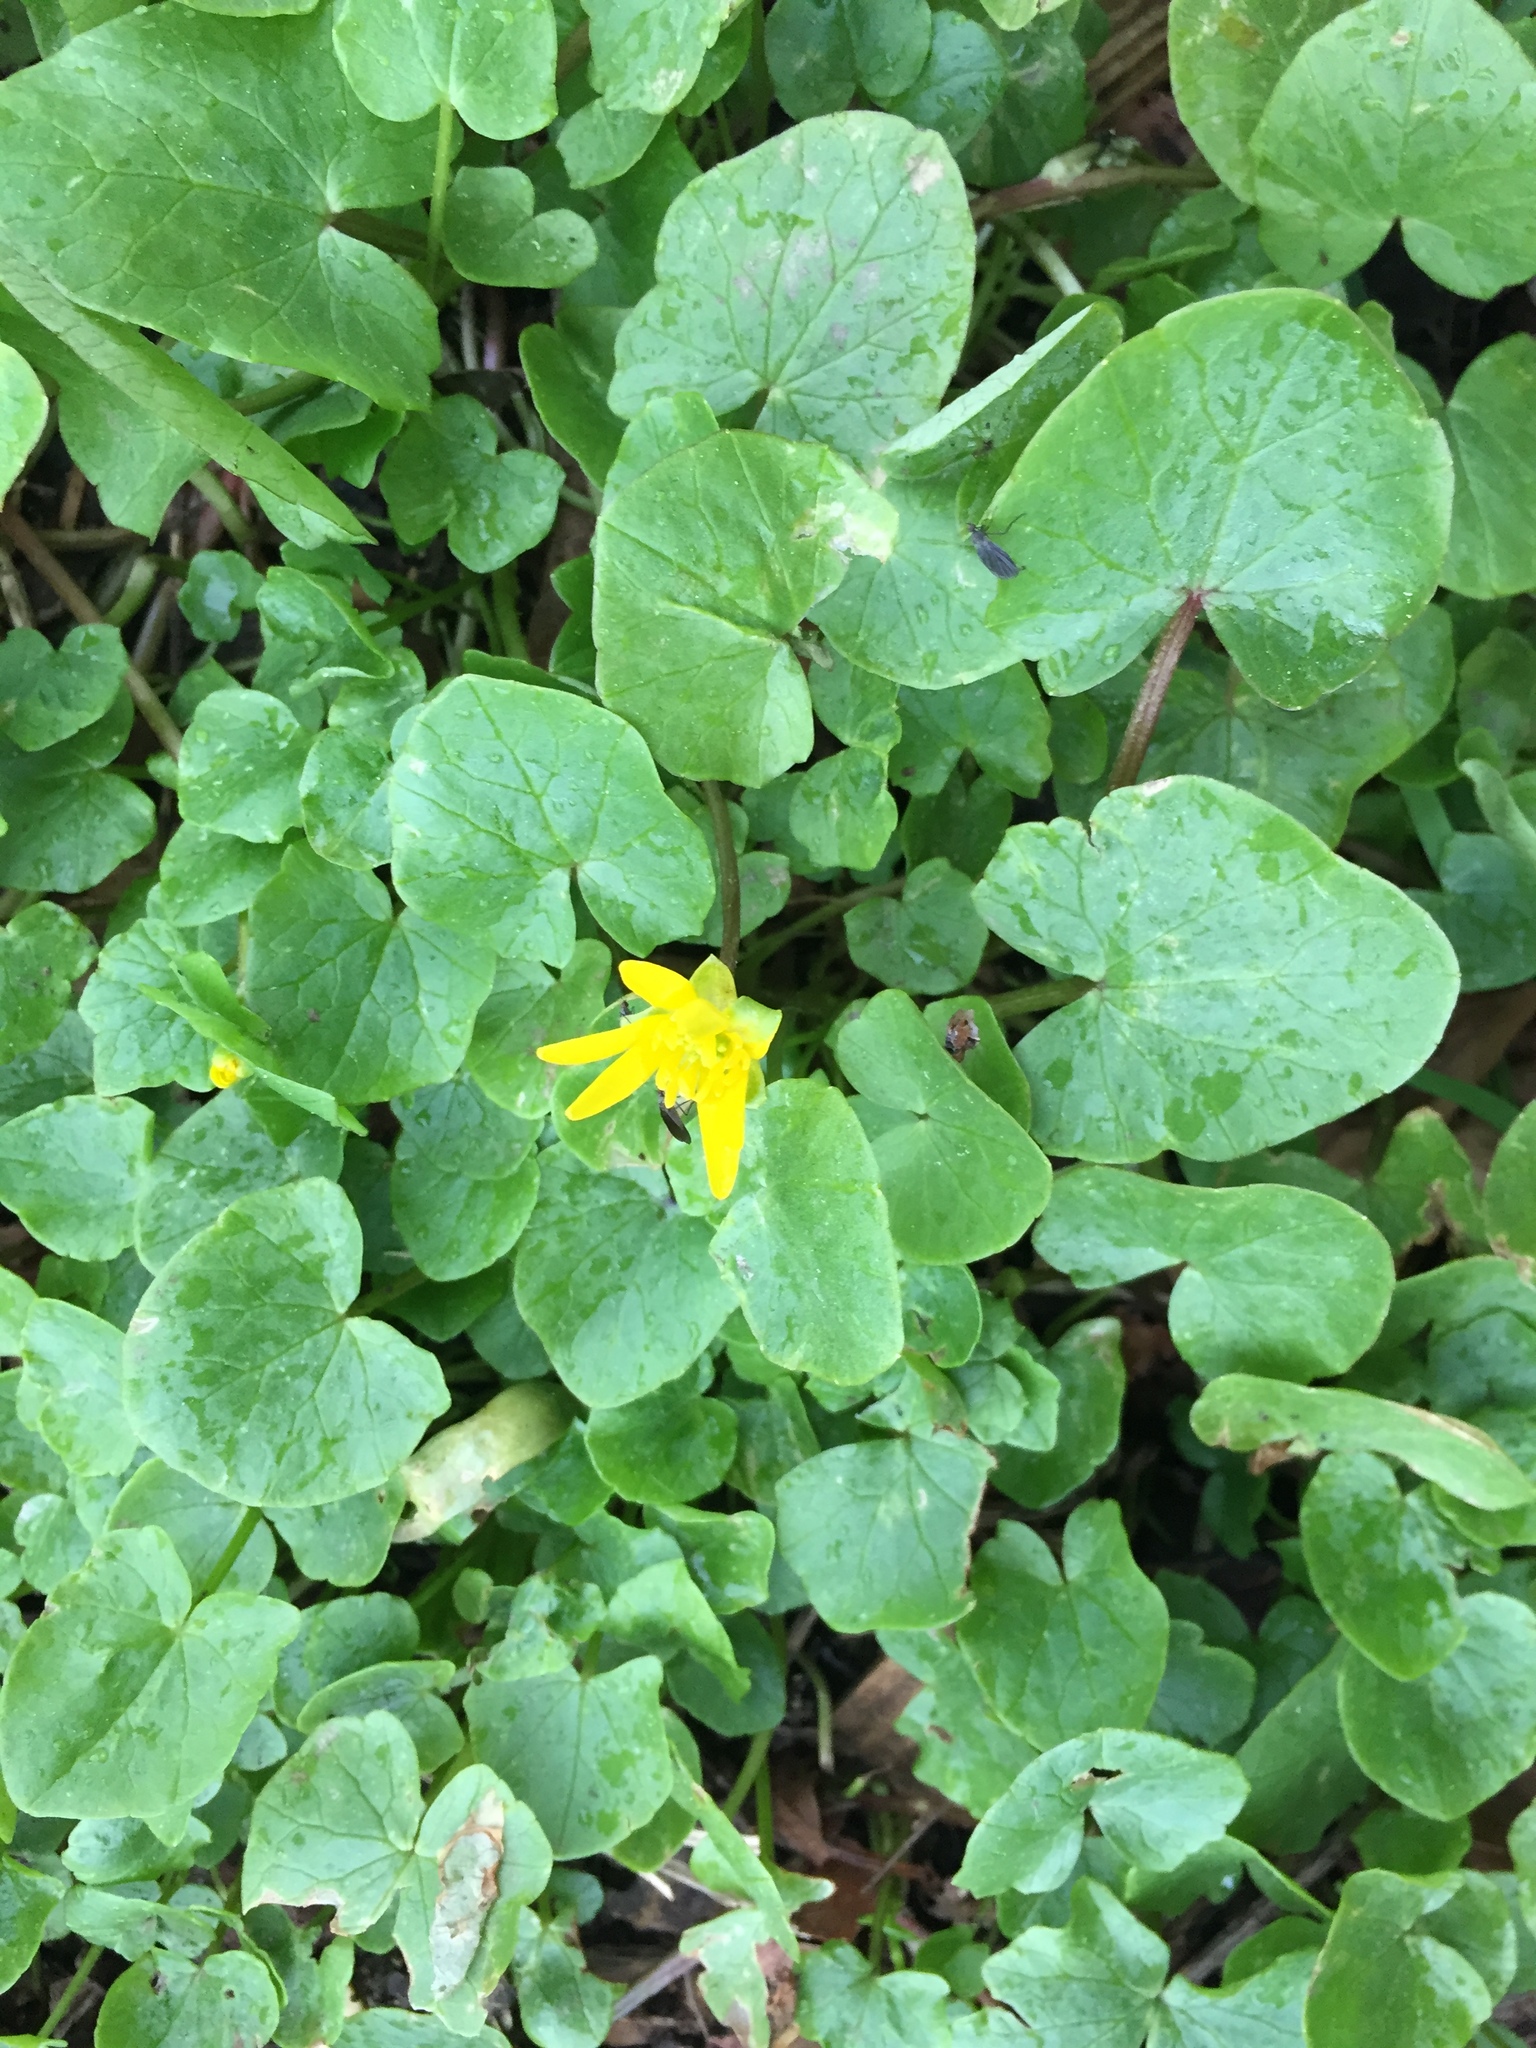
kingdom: Plantae
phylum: Tracheophyta
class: Magnoliopsida
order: Ranunculales
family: Ranunculaceae
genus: Ficaria
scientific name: Ficaria verna
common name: Lesser celandine
